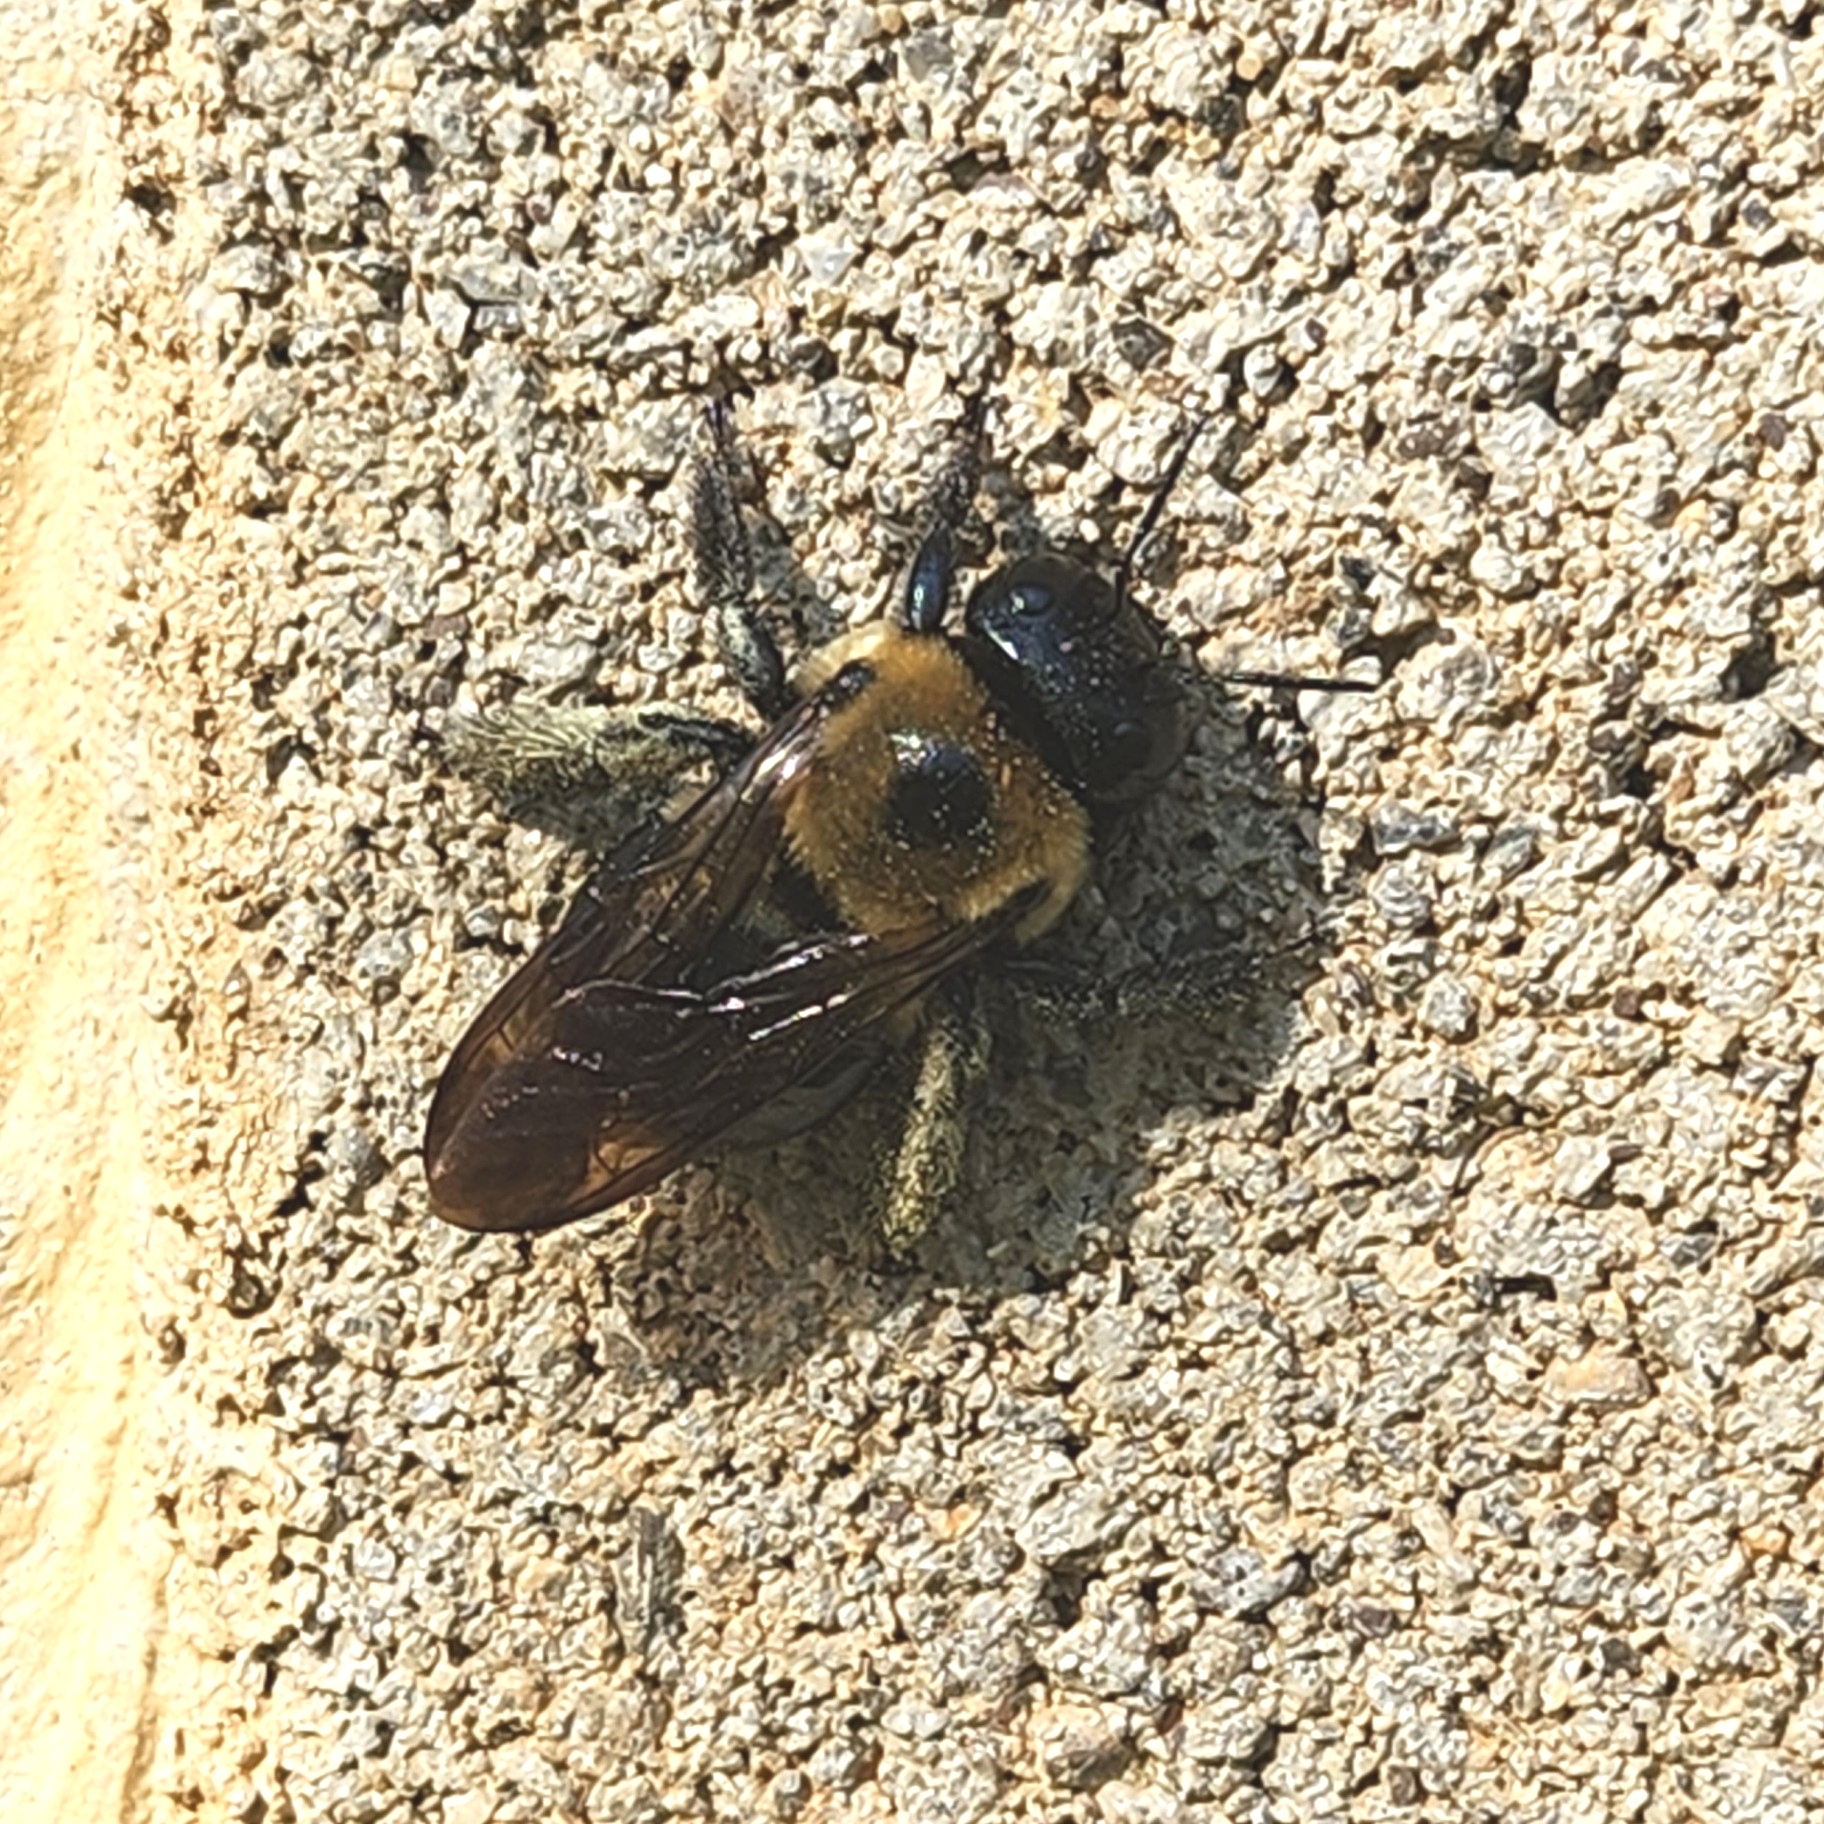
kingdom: Animalia
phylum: Arthropoda
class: Insecta
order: Hymenoptera
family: Apidae
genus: Xylocopa
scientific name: Xylocopa virginica
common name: Carpenter bee
